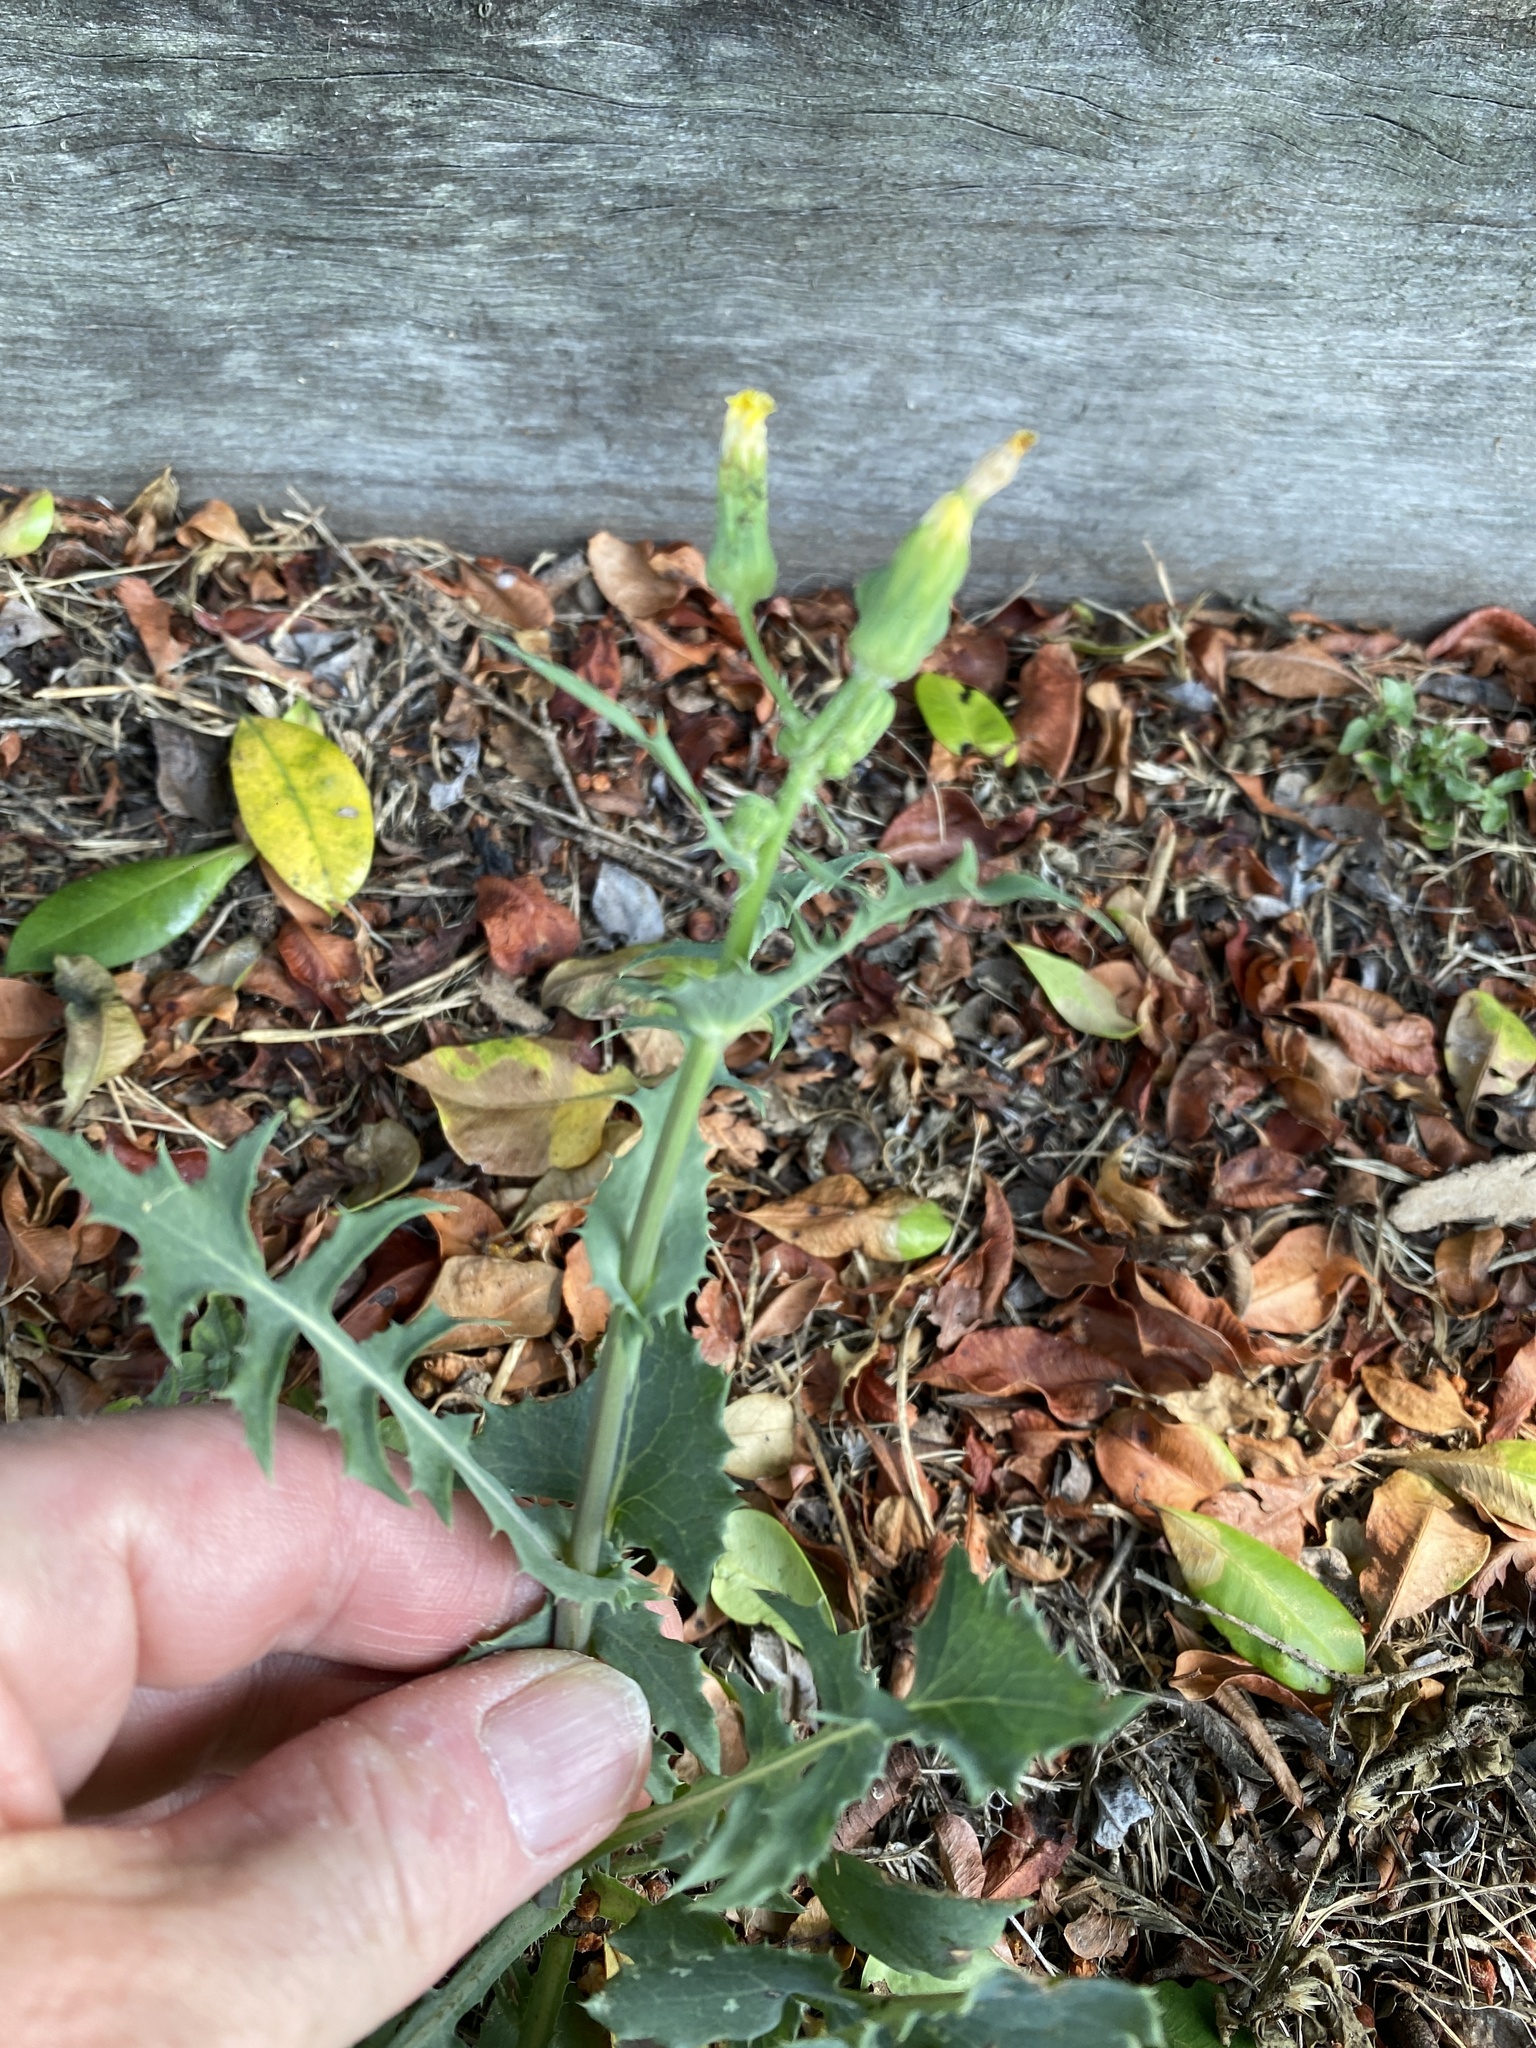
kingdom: Plantae
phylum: Tracheophyta
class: Magnoliopsida
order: Asterales
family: Asteraceae
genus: Sonchus
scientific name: Sonchus oleraceus
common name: Common sowthistle
